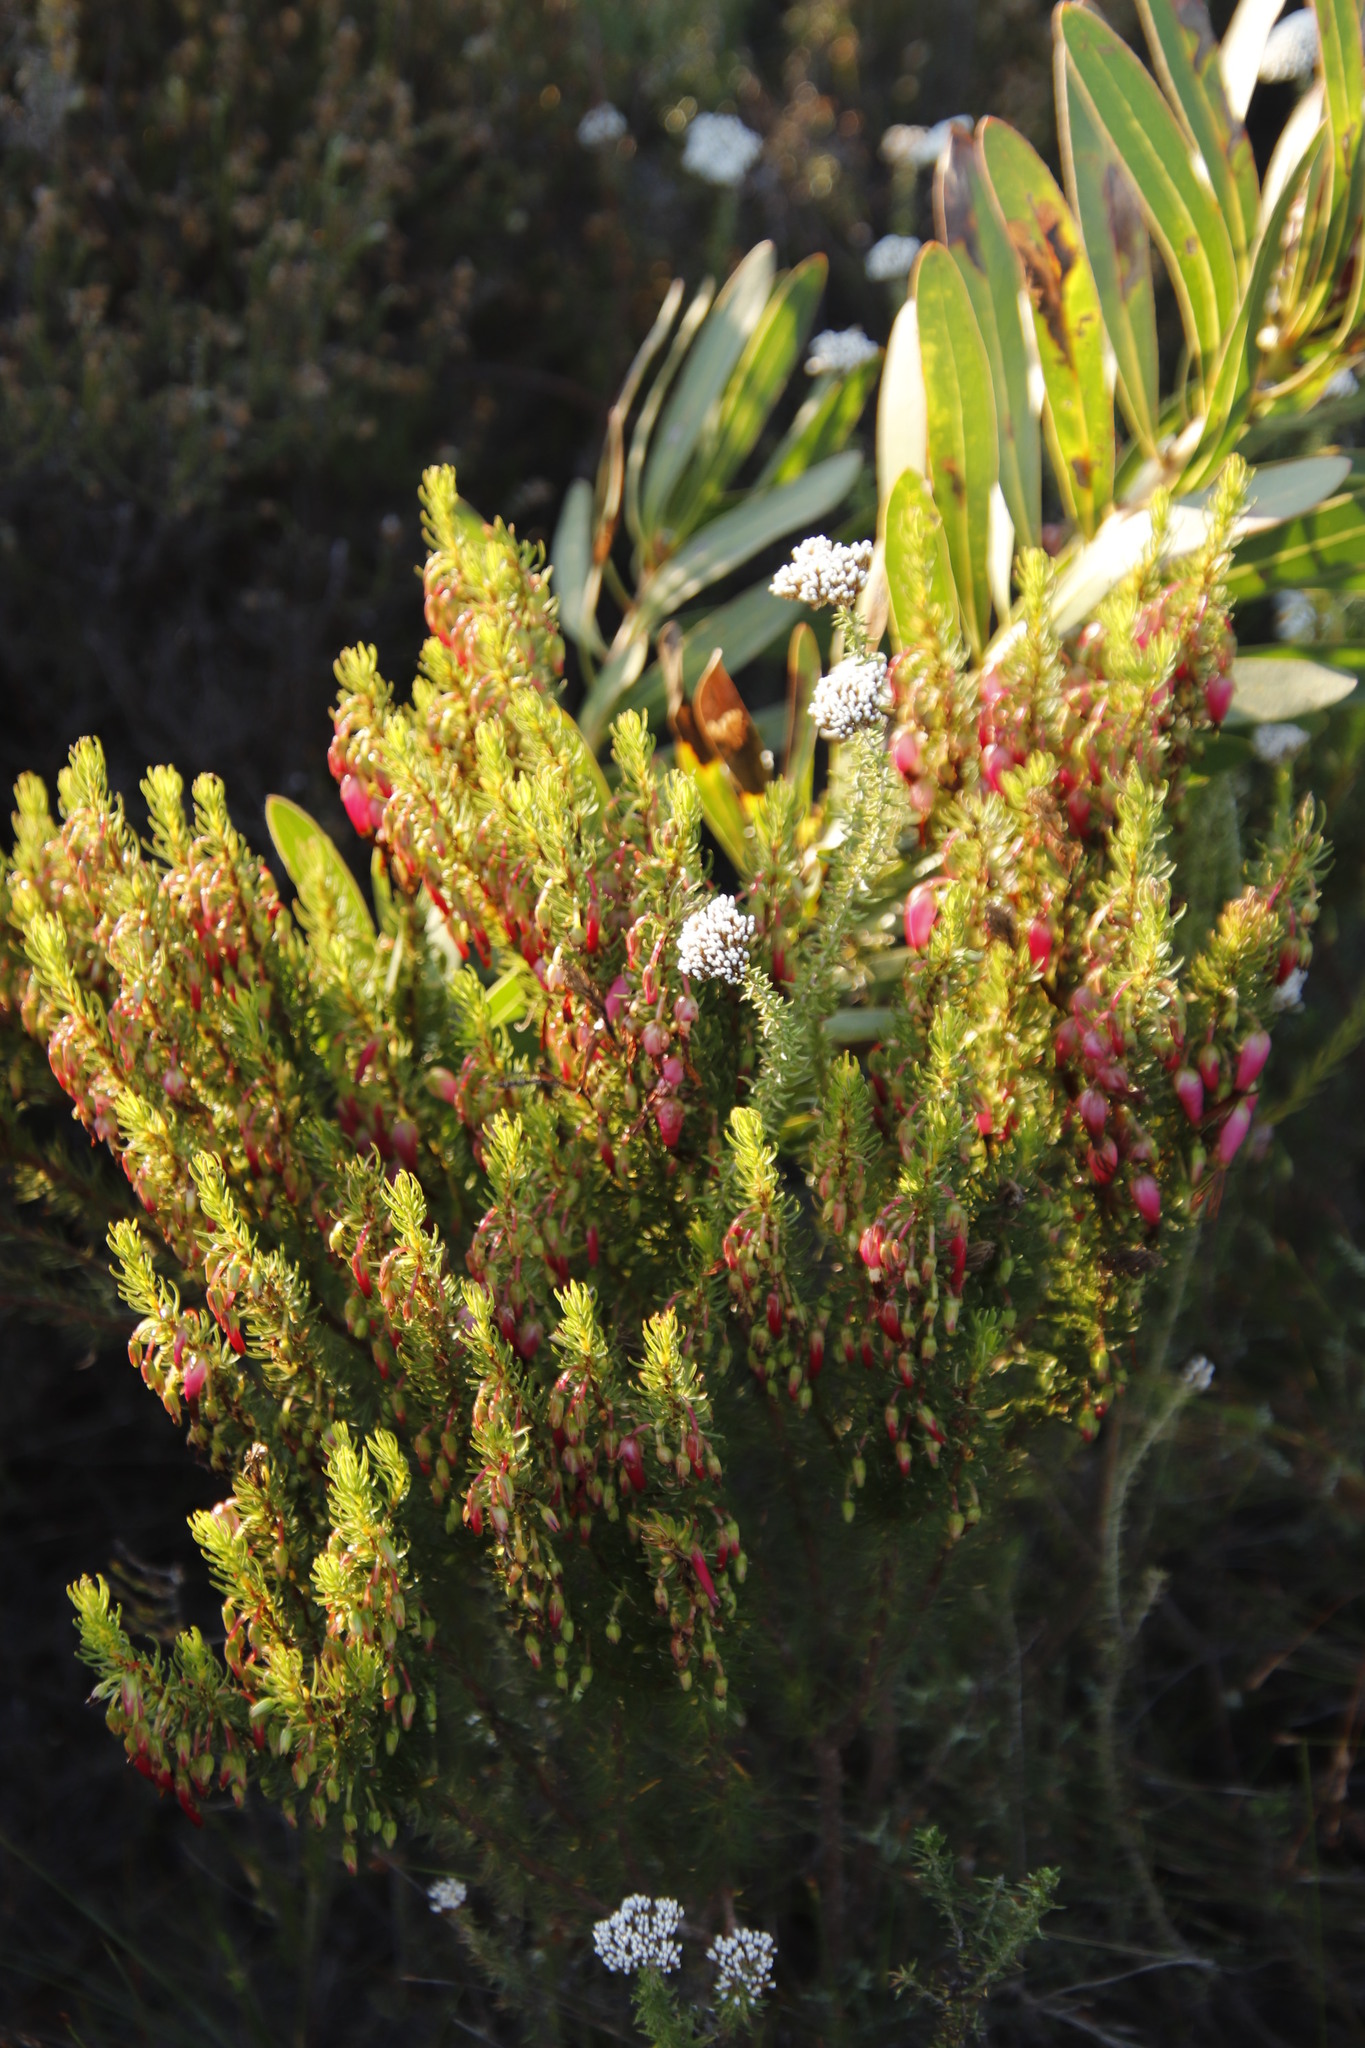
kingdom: Plantae
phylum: Tracheophyta
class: Magnoliopsida
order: Ericales
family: Ericaceae
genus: Erica
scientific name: Erica plukenetii
